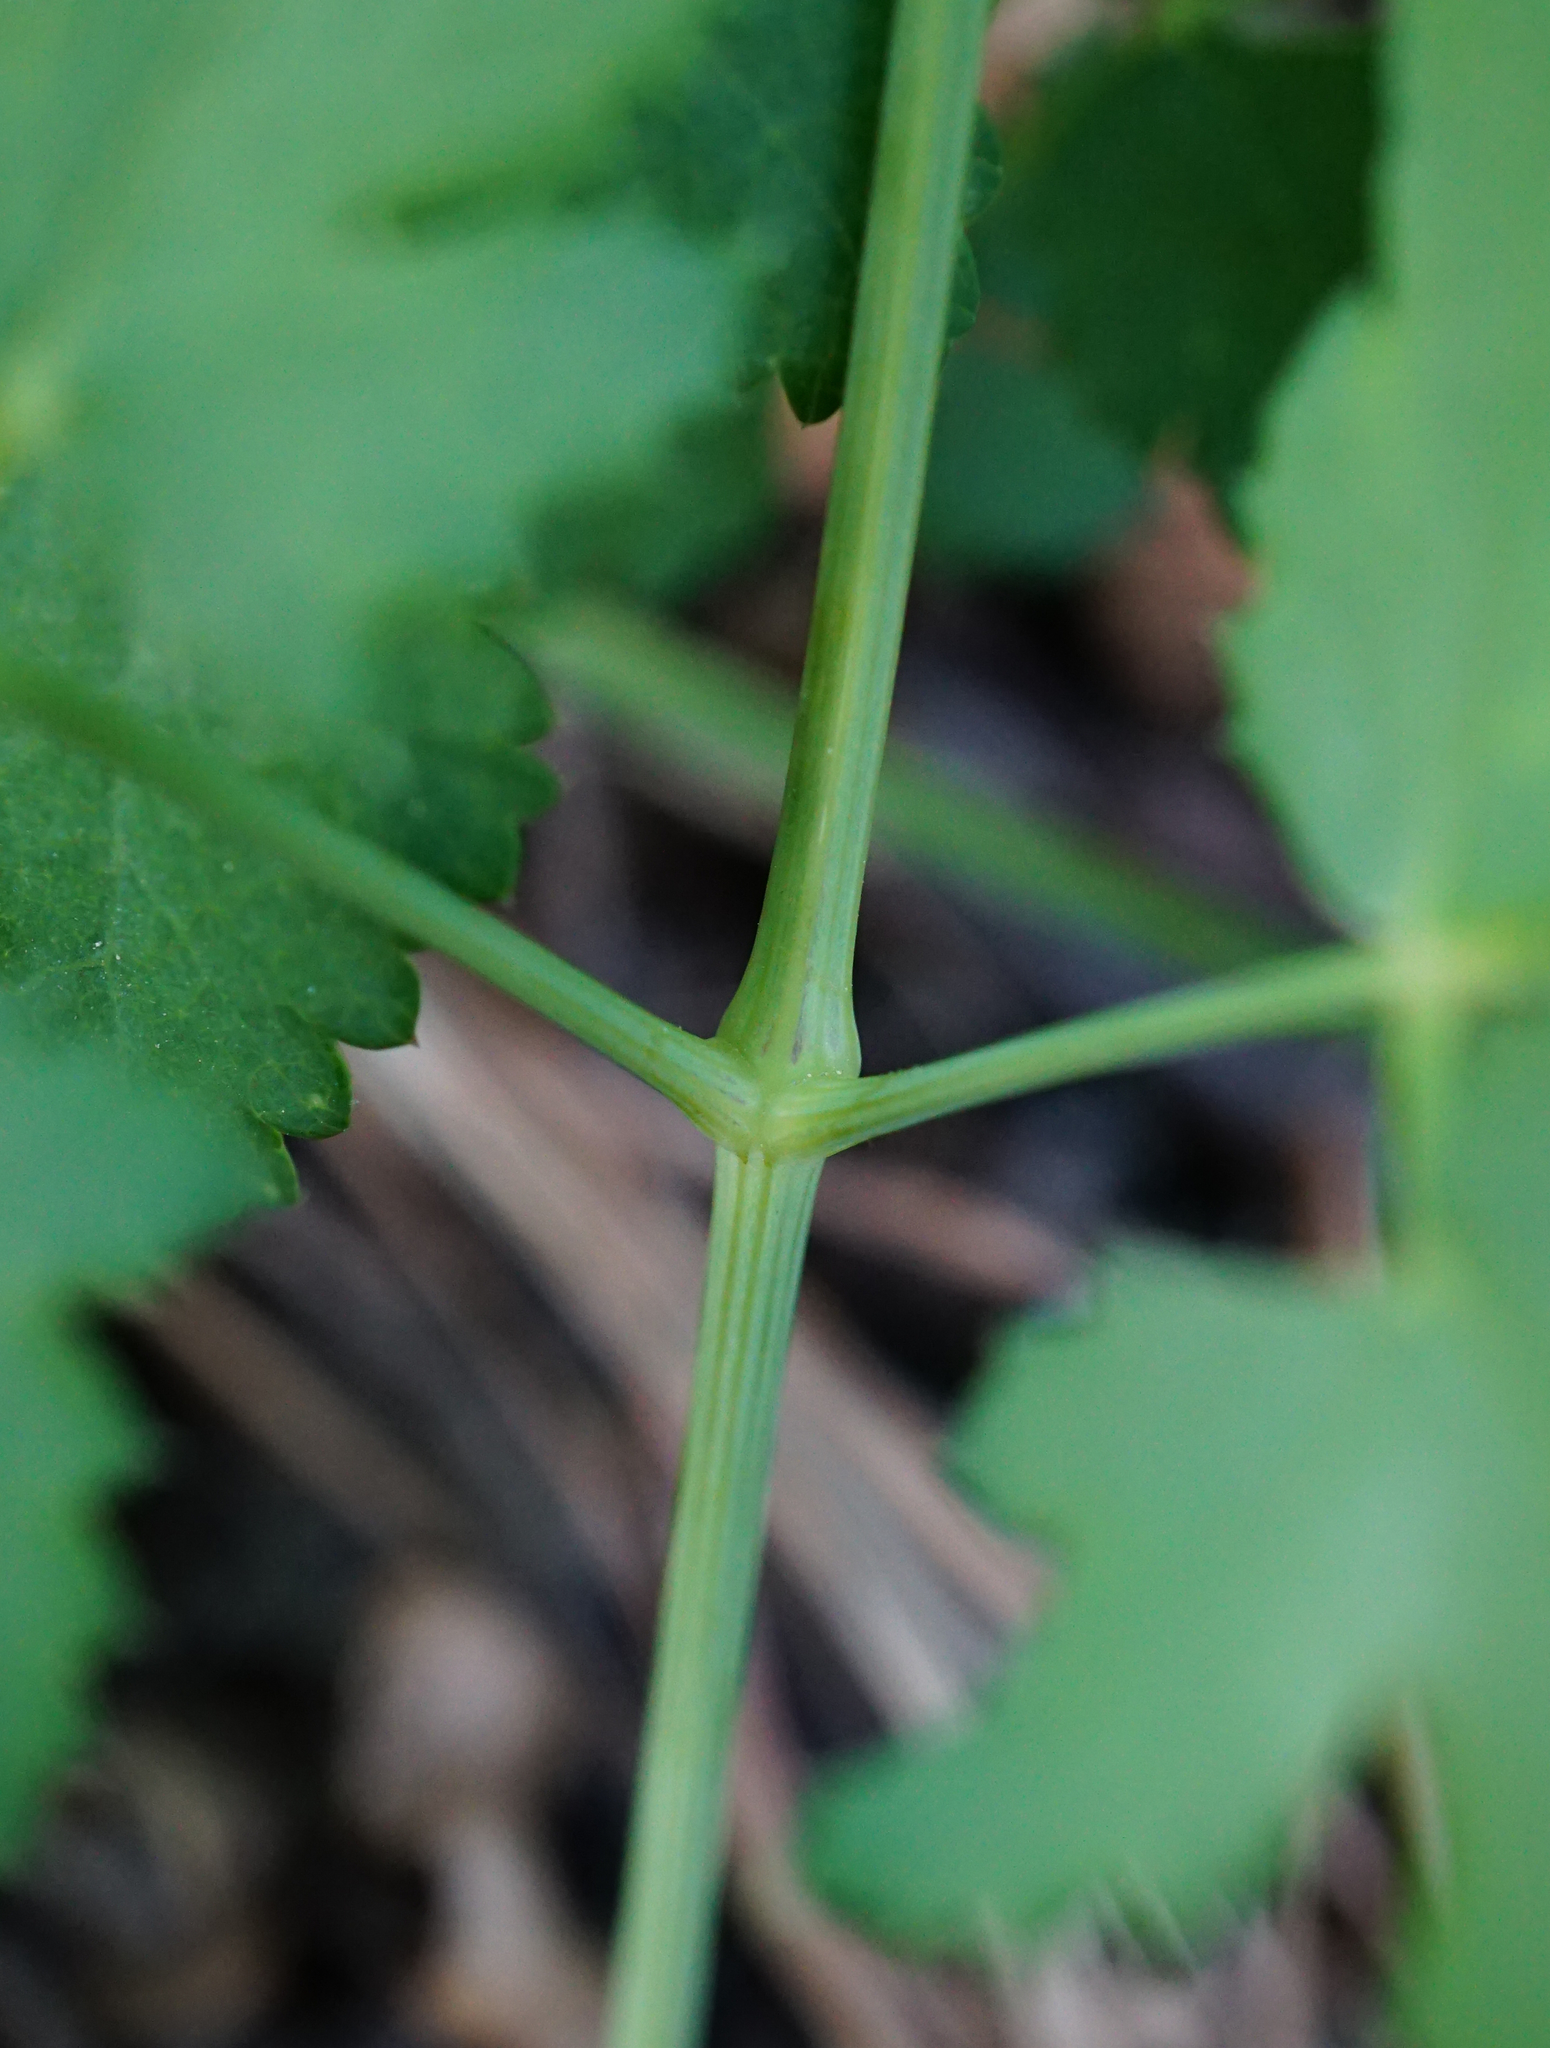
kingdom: Plantae
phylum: Tracheophyta
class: Magnoliopsida
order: Apiales
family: Apiaceae
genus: Cervaria
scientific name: Cervaria rivini
